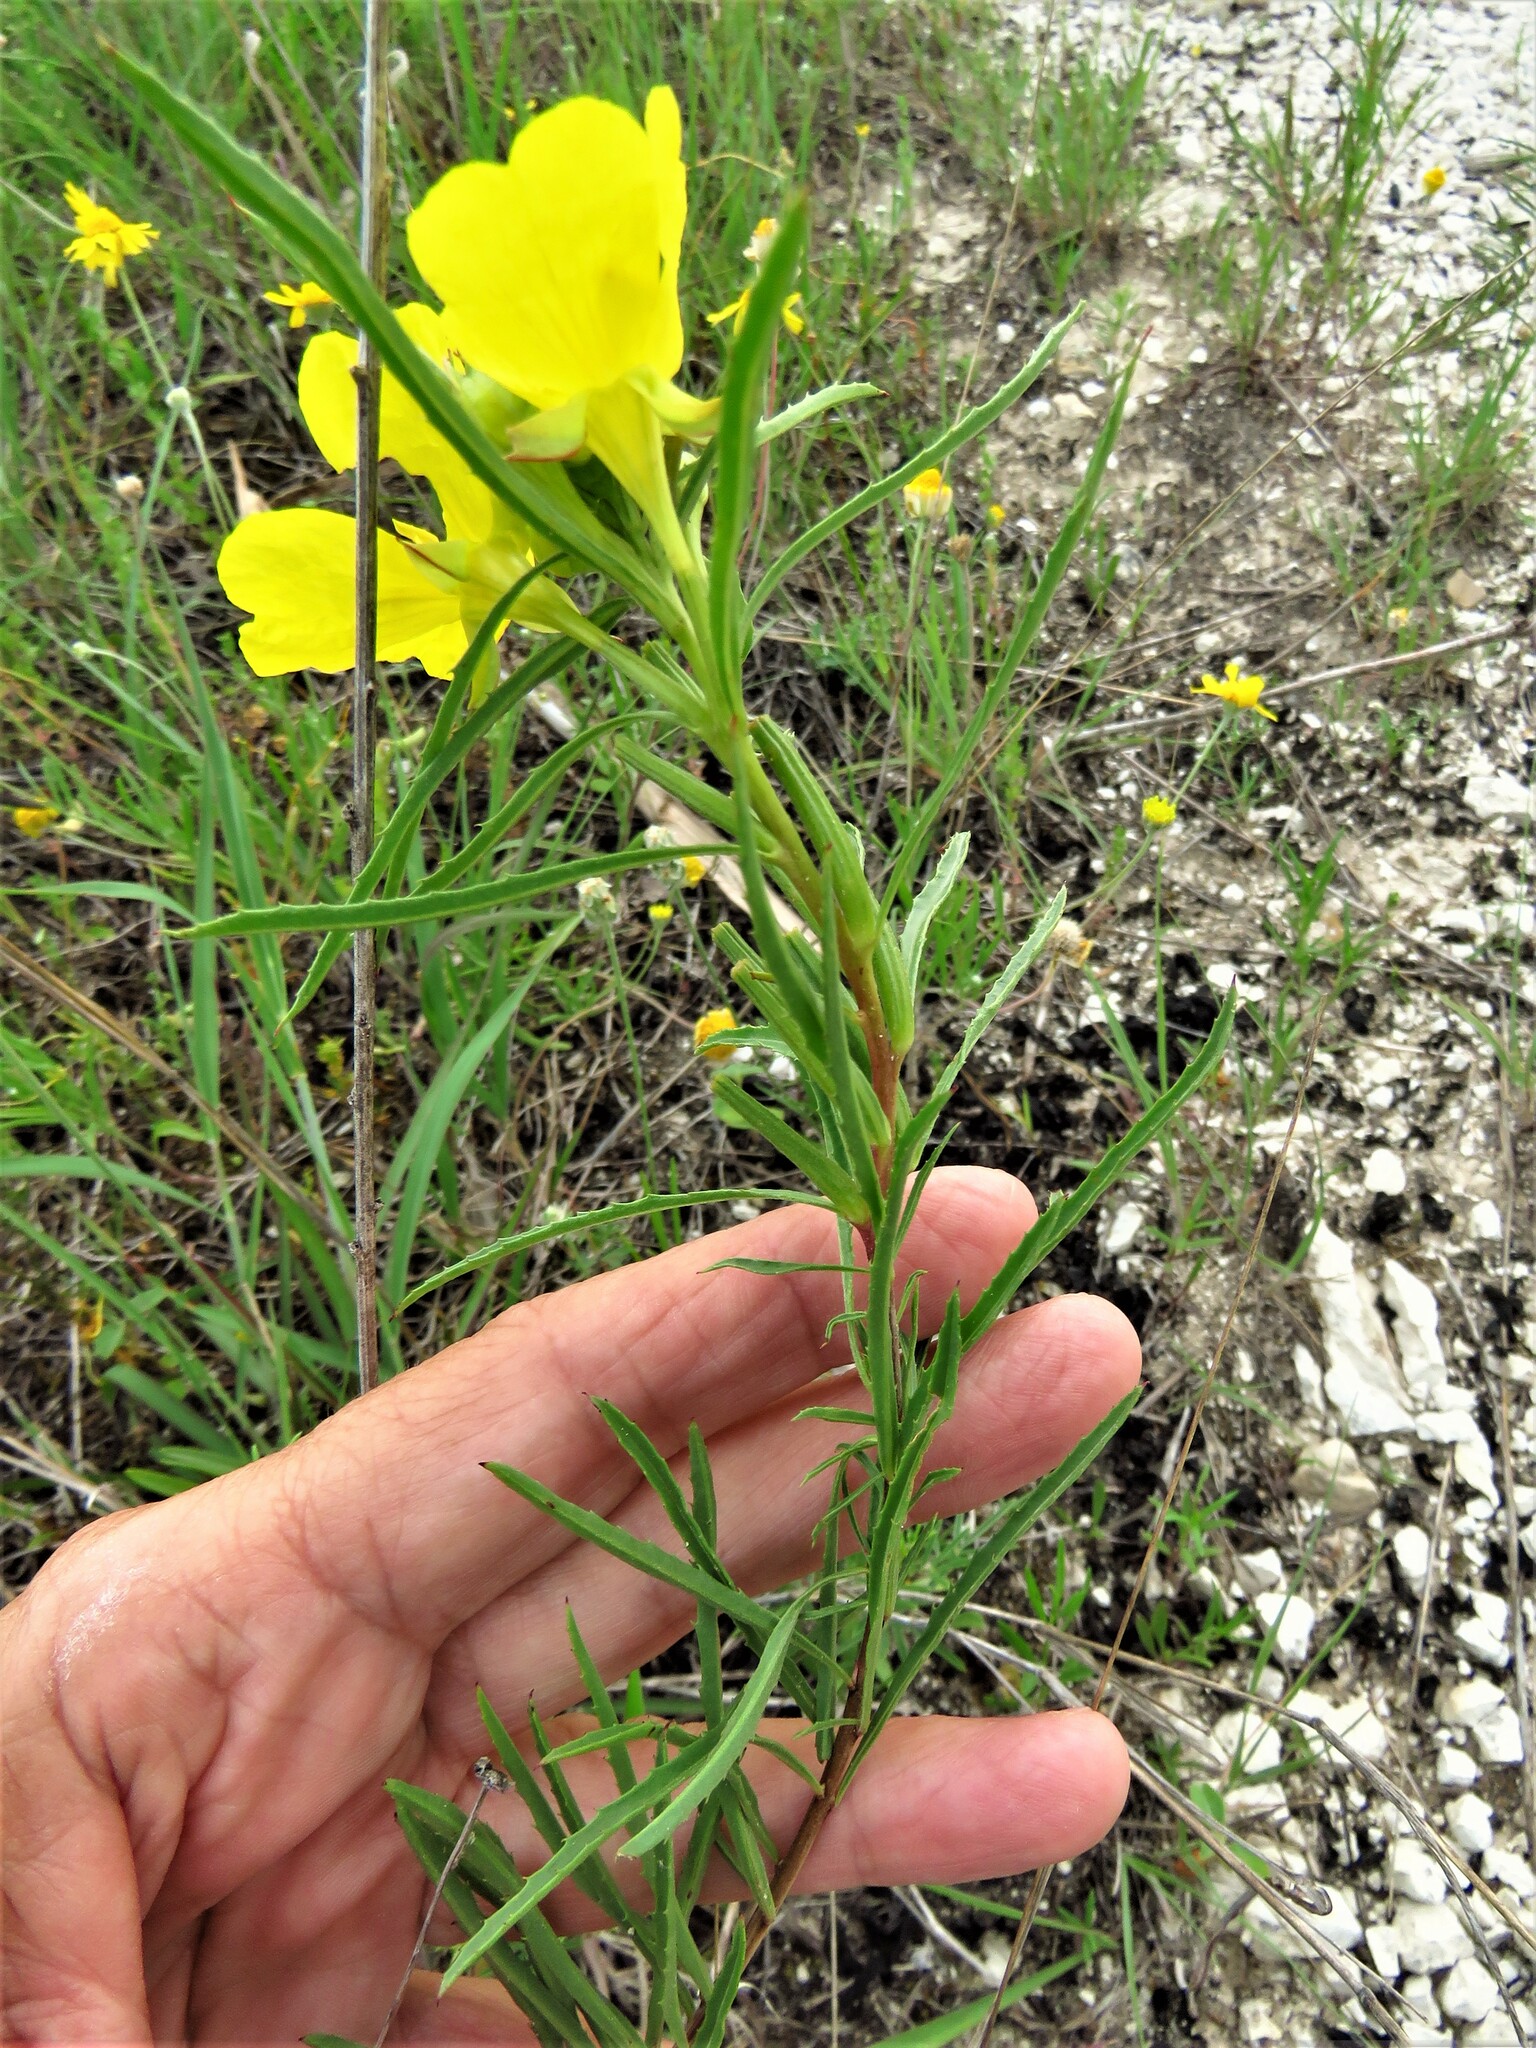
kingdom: Plantae
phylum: Tracheophyta
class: Magnoliopsida
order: Myrtales
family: Onagraceae
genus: Oenothera
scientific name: Oenothera
